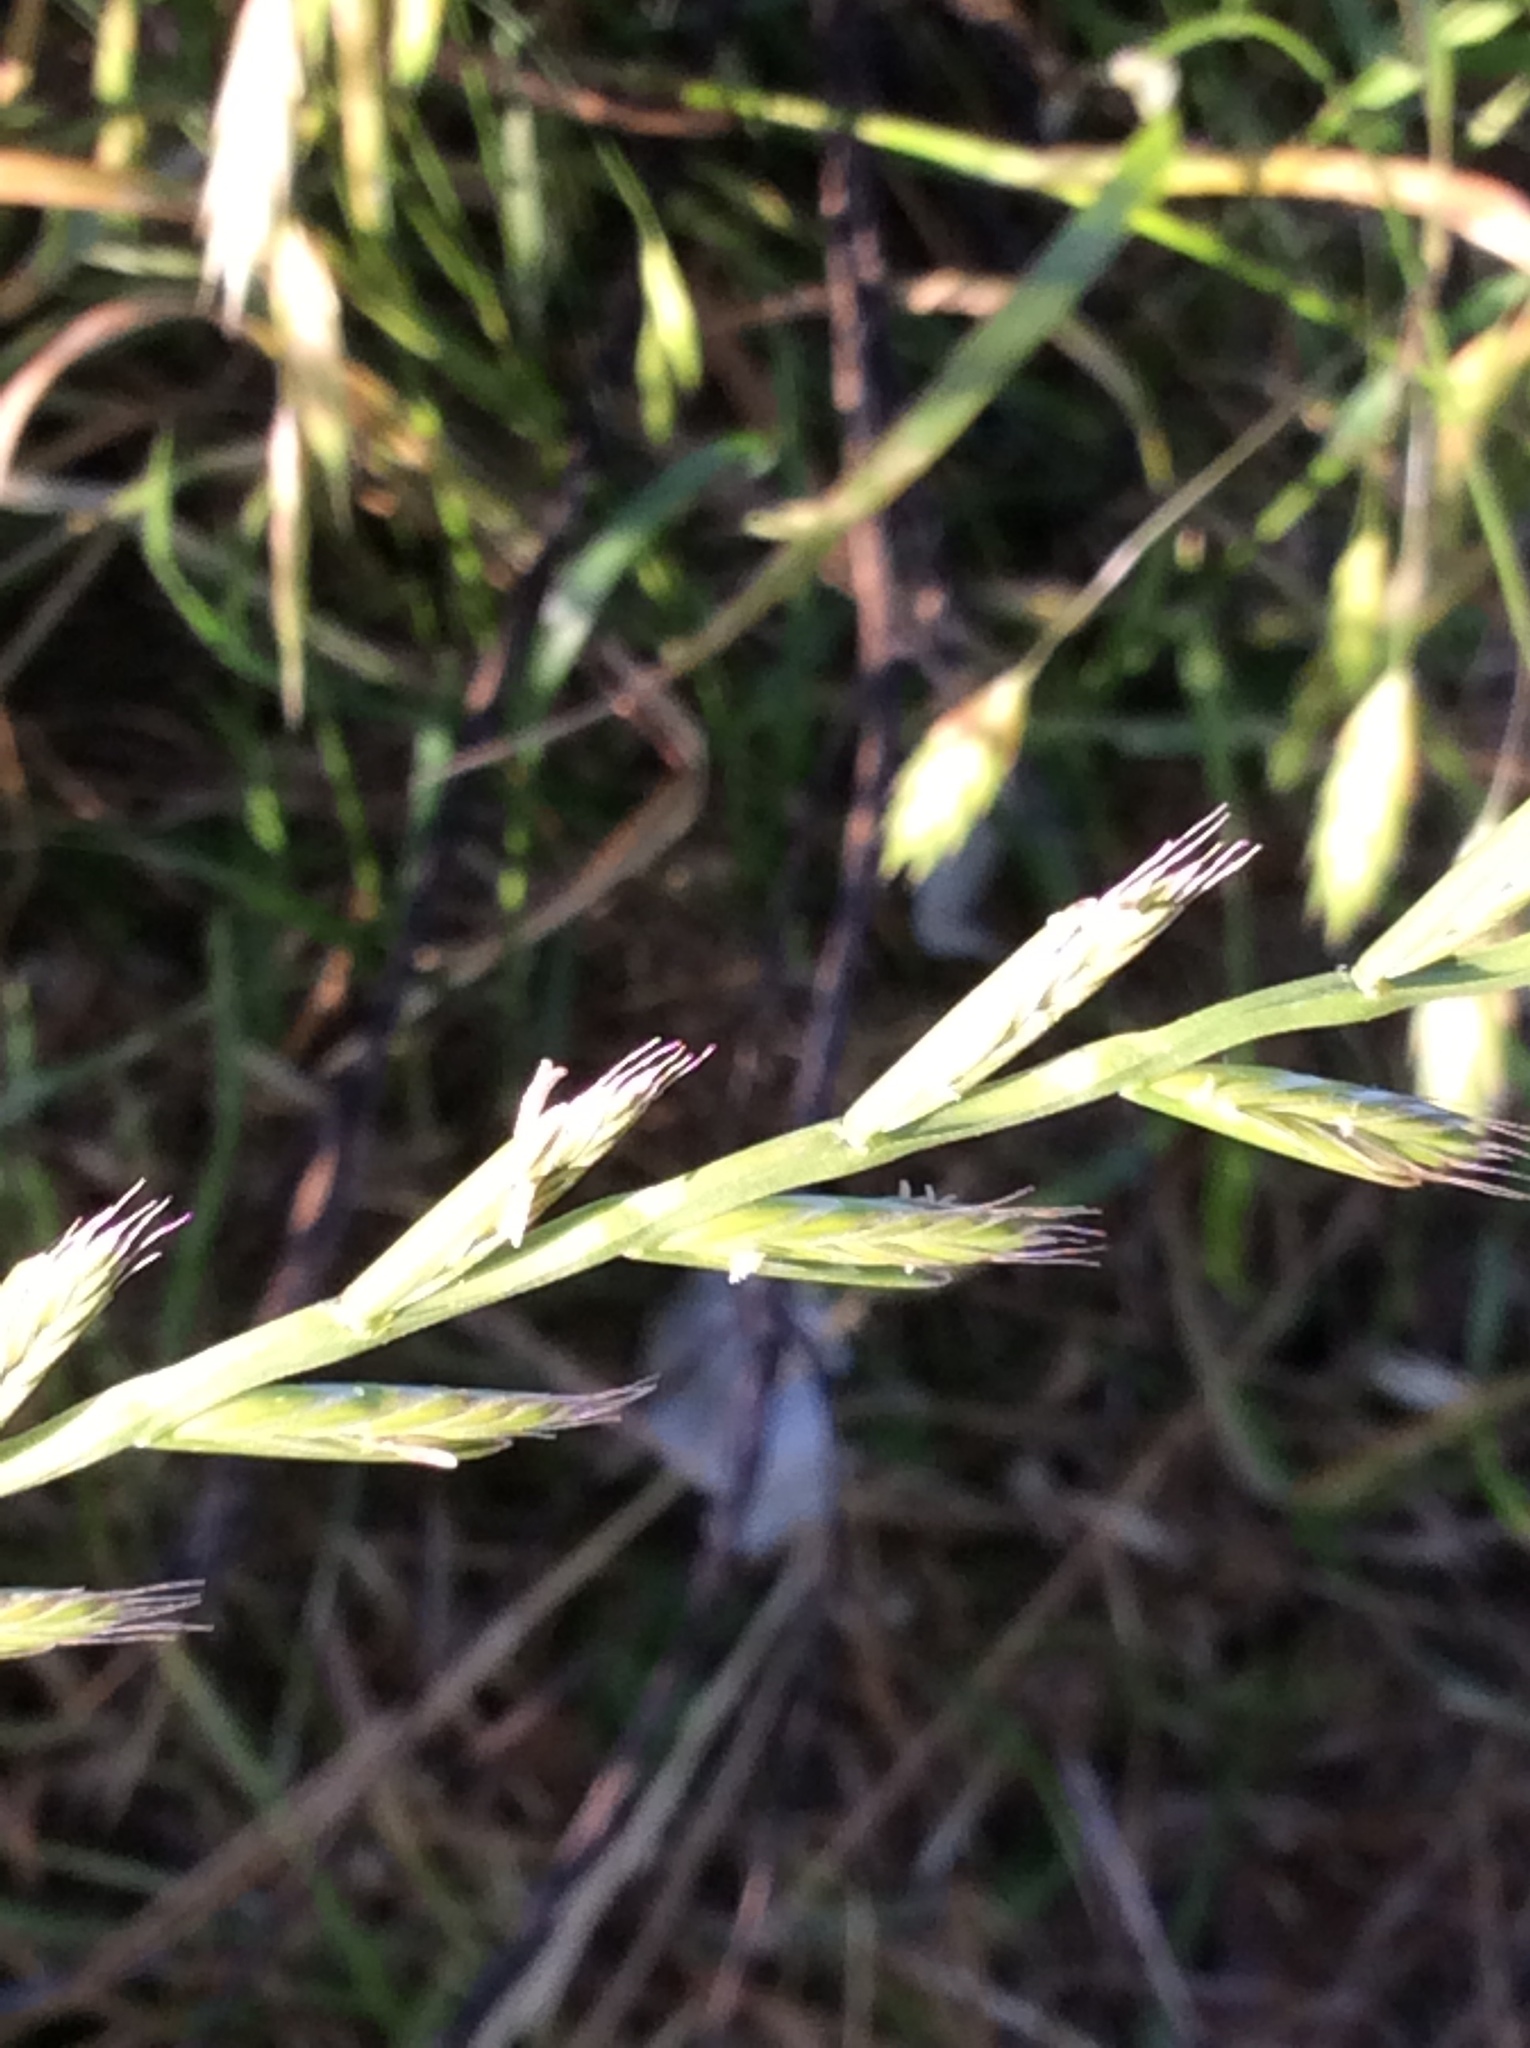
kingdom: Plantae
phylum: Tracheophyta
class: Liliopsida
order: Poales
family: Poaceae
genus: Lolium
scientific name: Lolium perenne
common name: Perennial ryegrass
